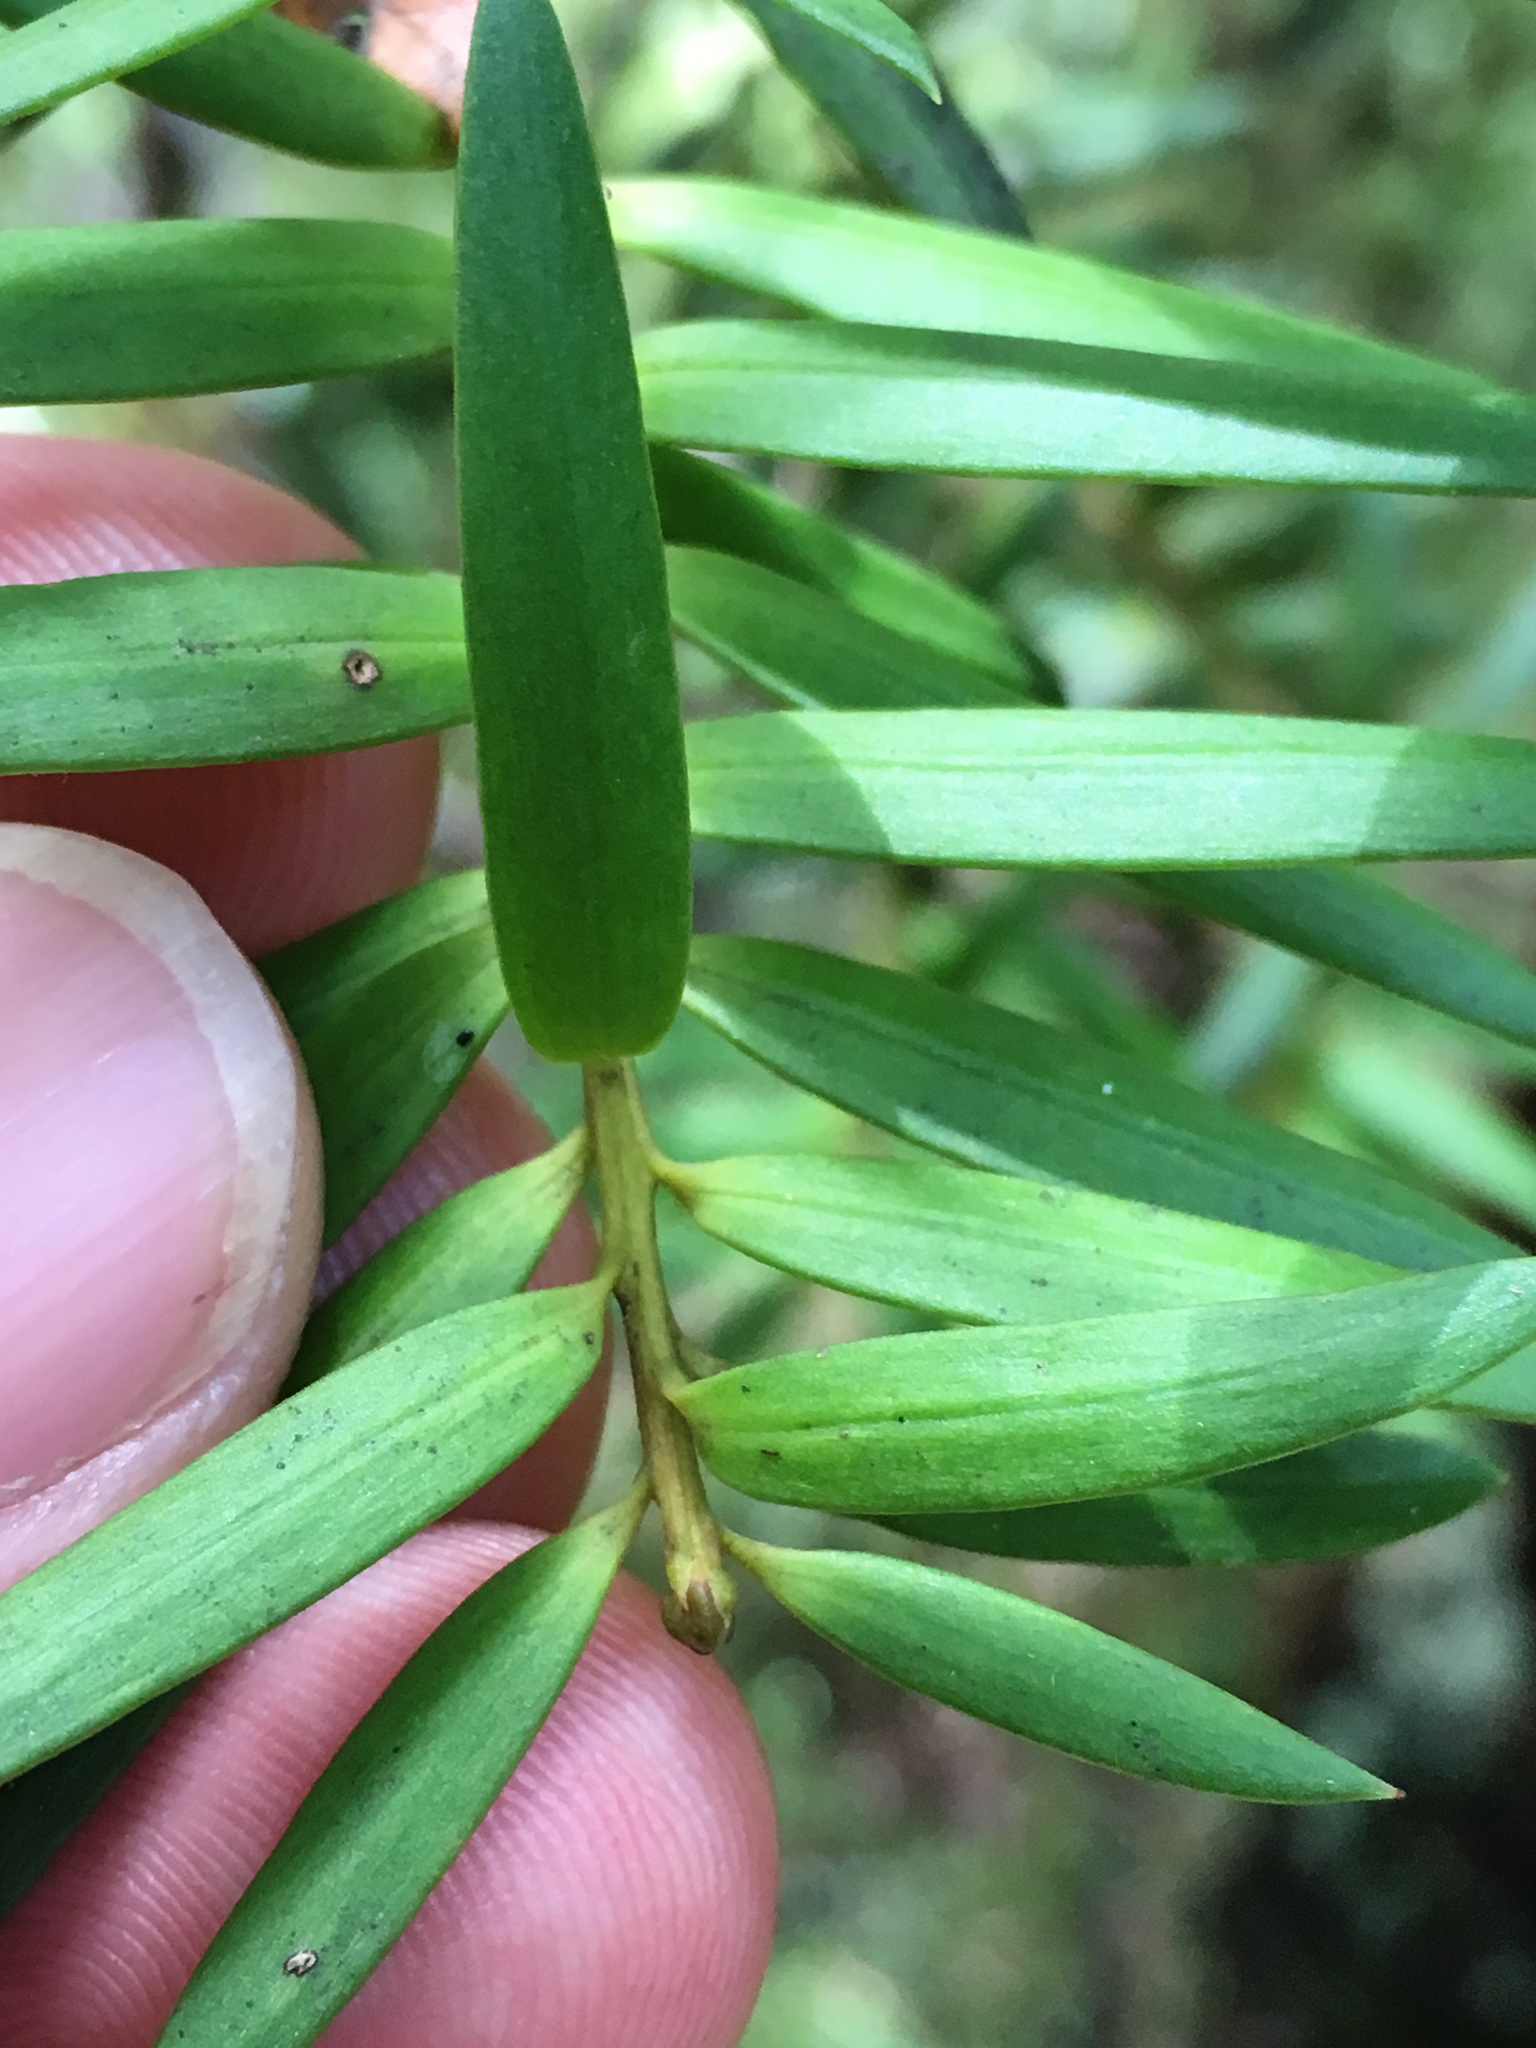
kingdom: Plantae
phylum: Tracheophyta
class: Pinopsida
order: Pinales
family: Podocarpaceae
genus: Podocarpus
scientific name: Podocarpus totara
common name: Totara
